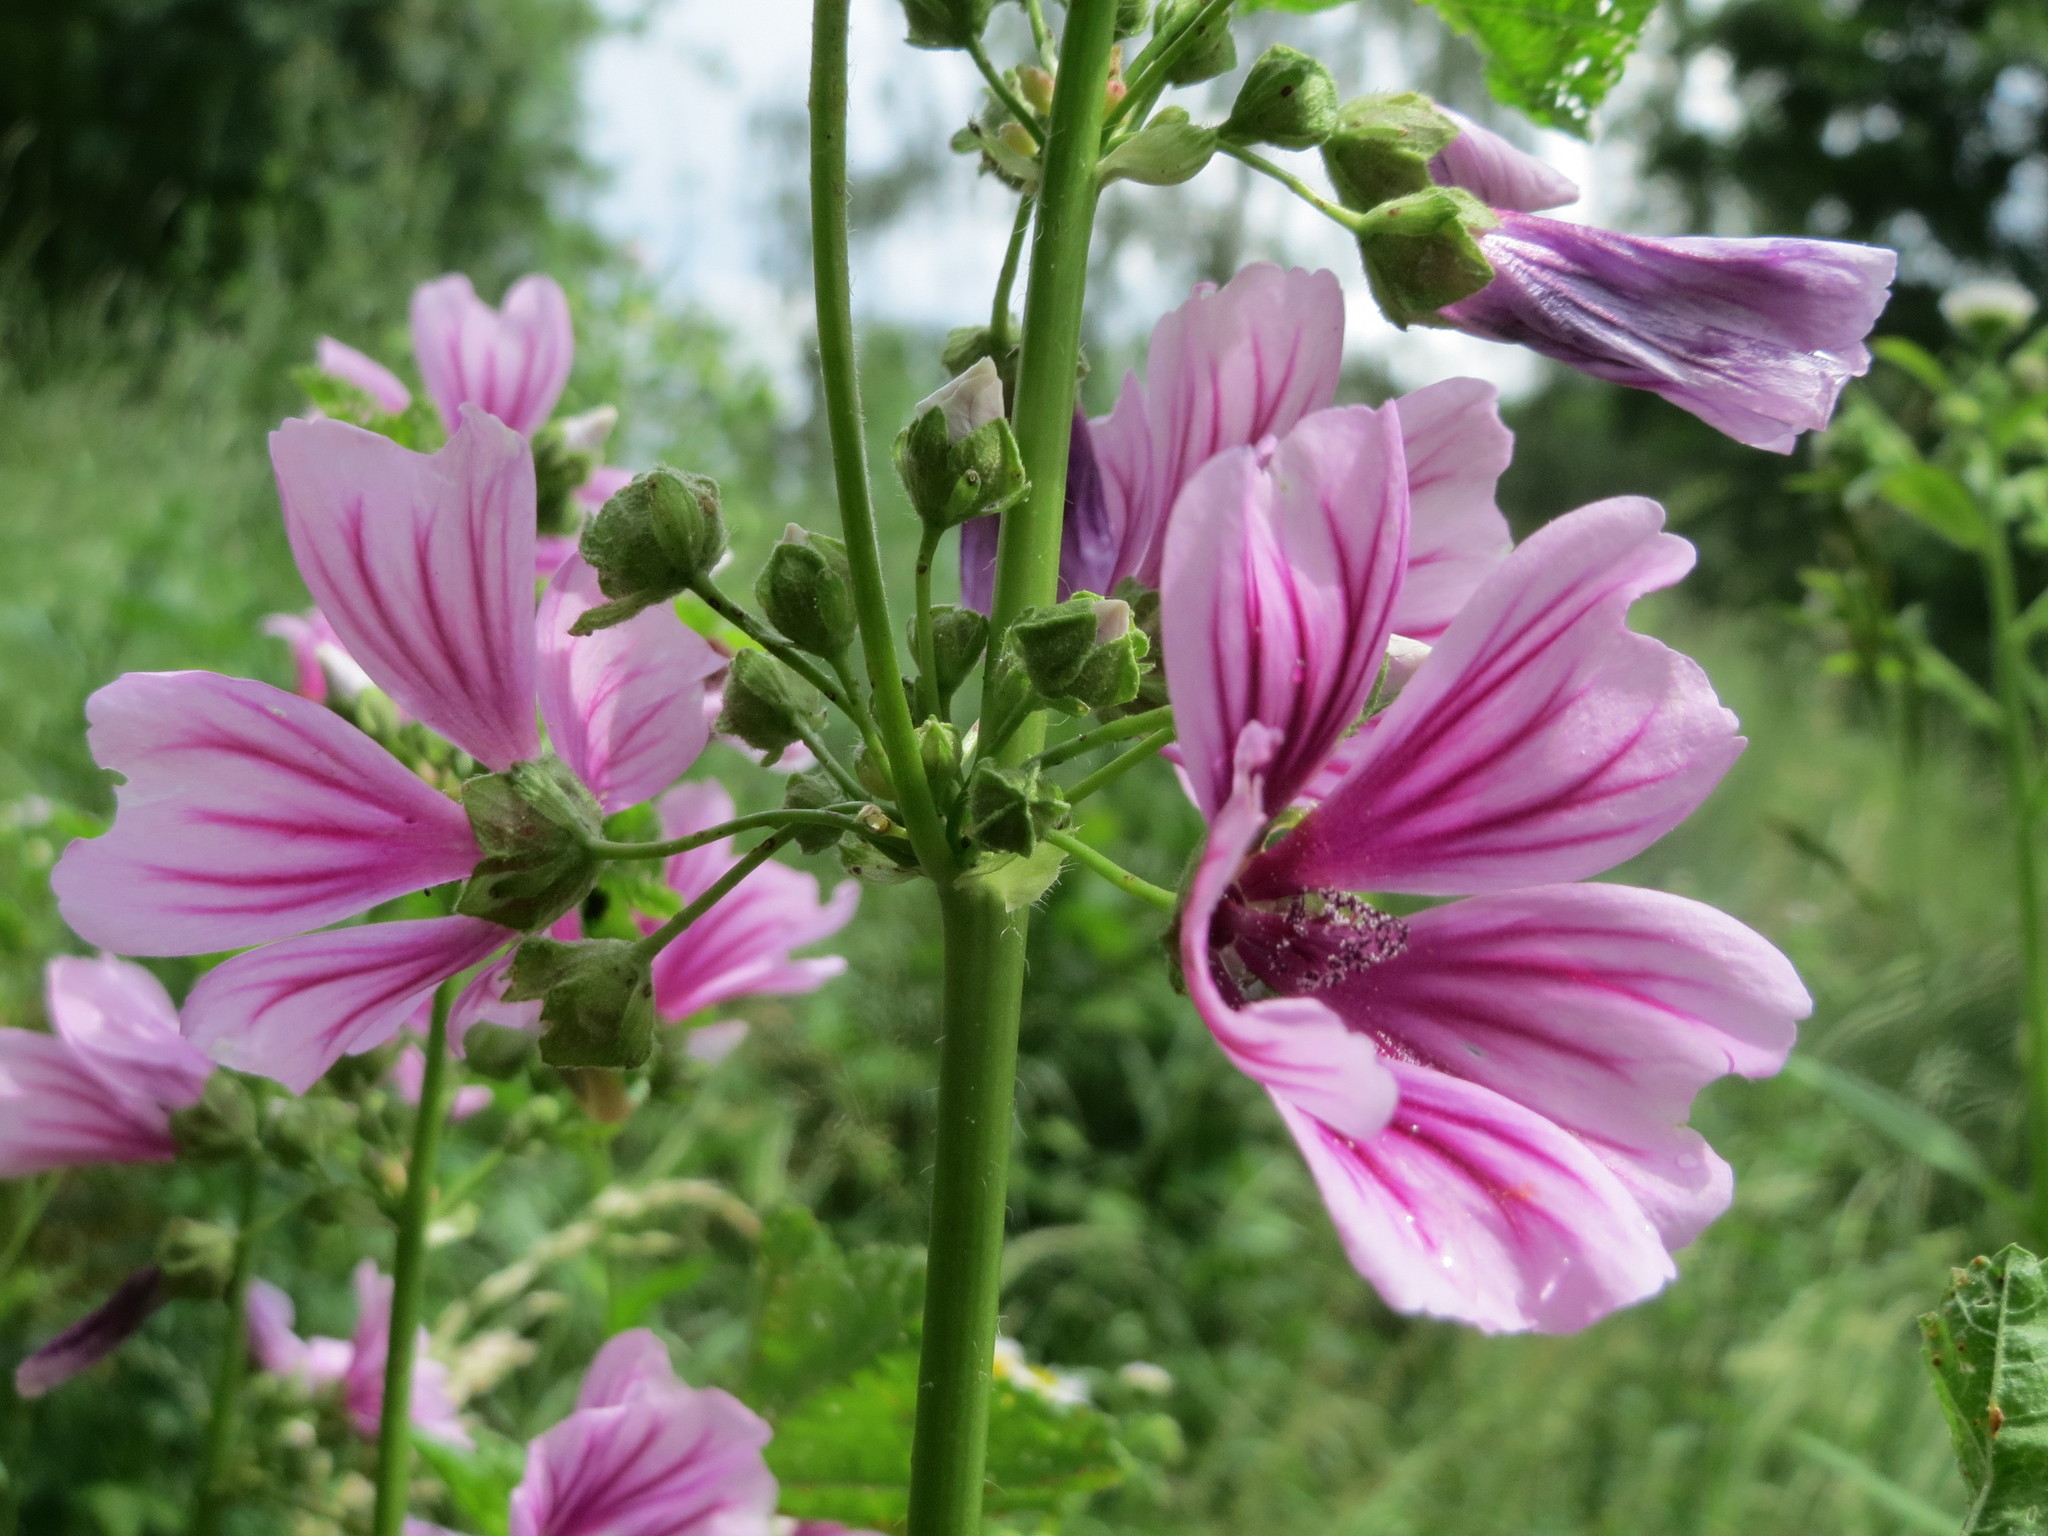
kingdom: Plantae
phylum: Tracheophyta
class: Magnoliopsida
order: Malvales
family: Malvaceae
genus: Malva
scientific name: Malva sylvestris
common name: Common mallow
